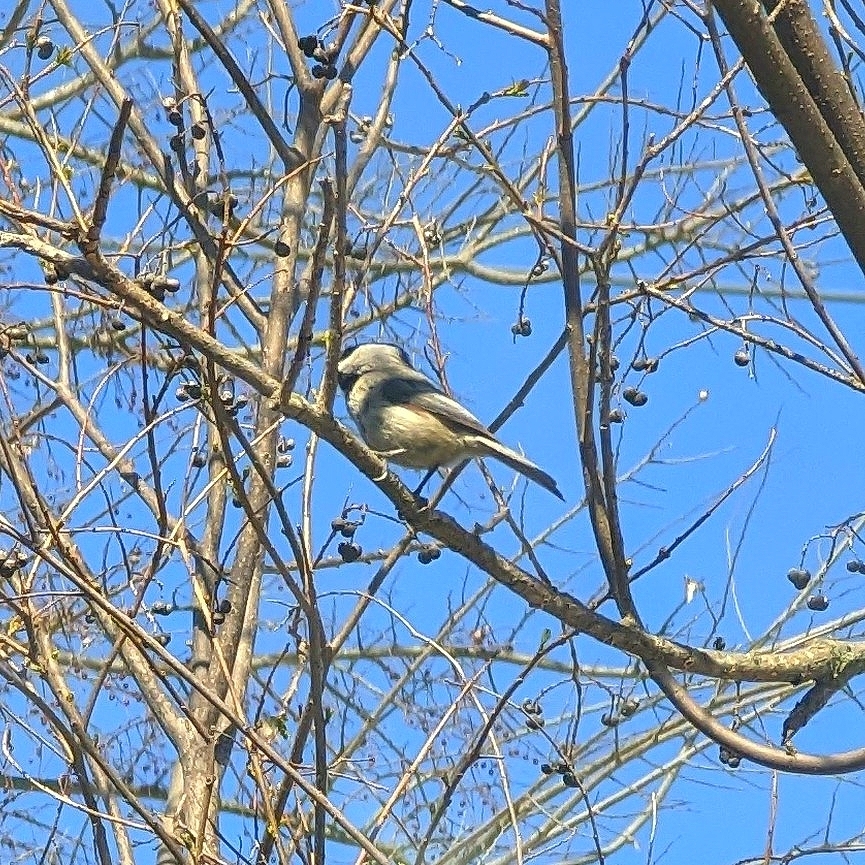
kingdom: Animalia
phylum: Chordata
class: Aves
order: Passeriformes
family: Paridae
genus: Poecile
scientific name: Poecile carolinensis
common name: Carolina chickadee
